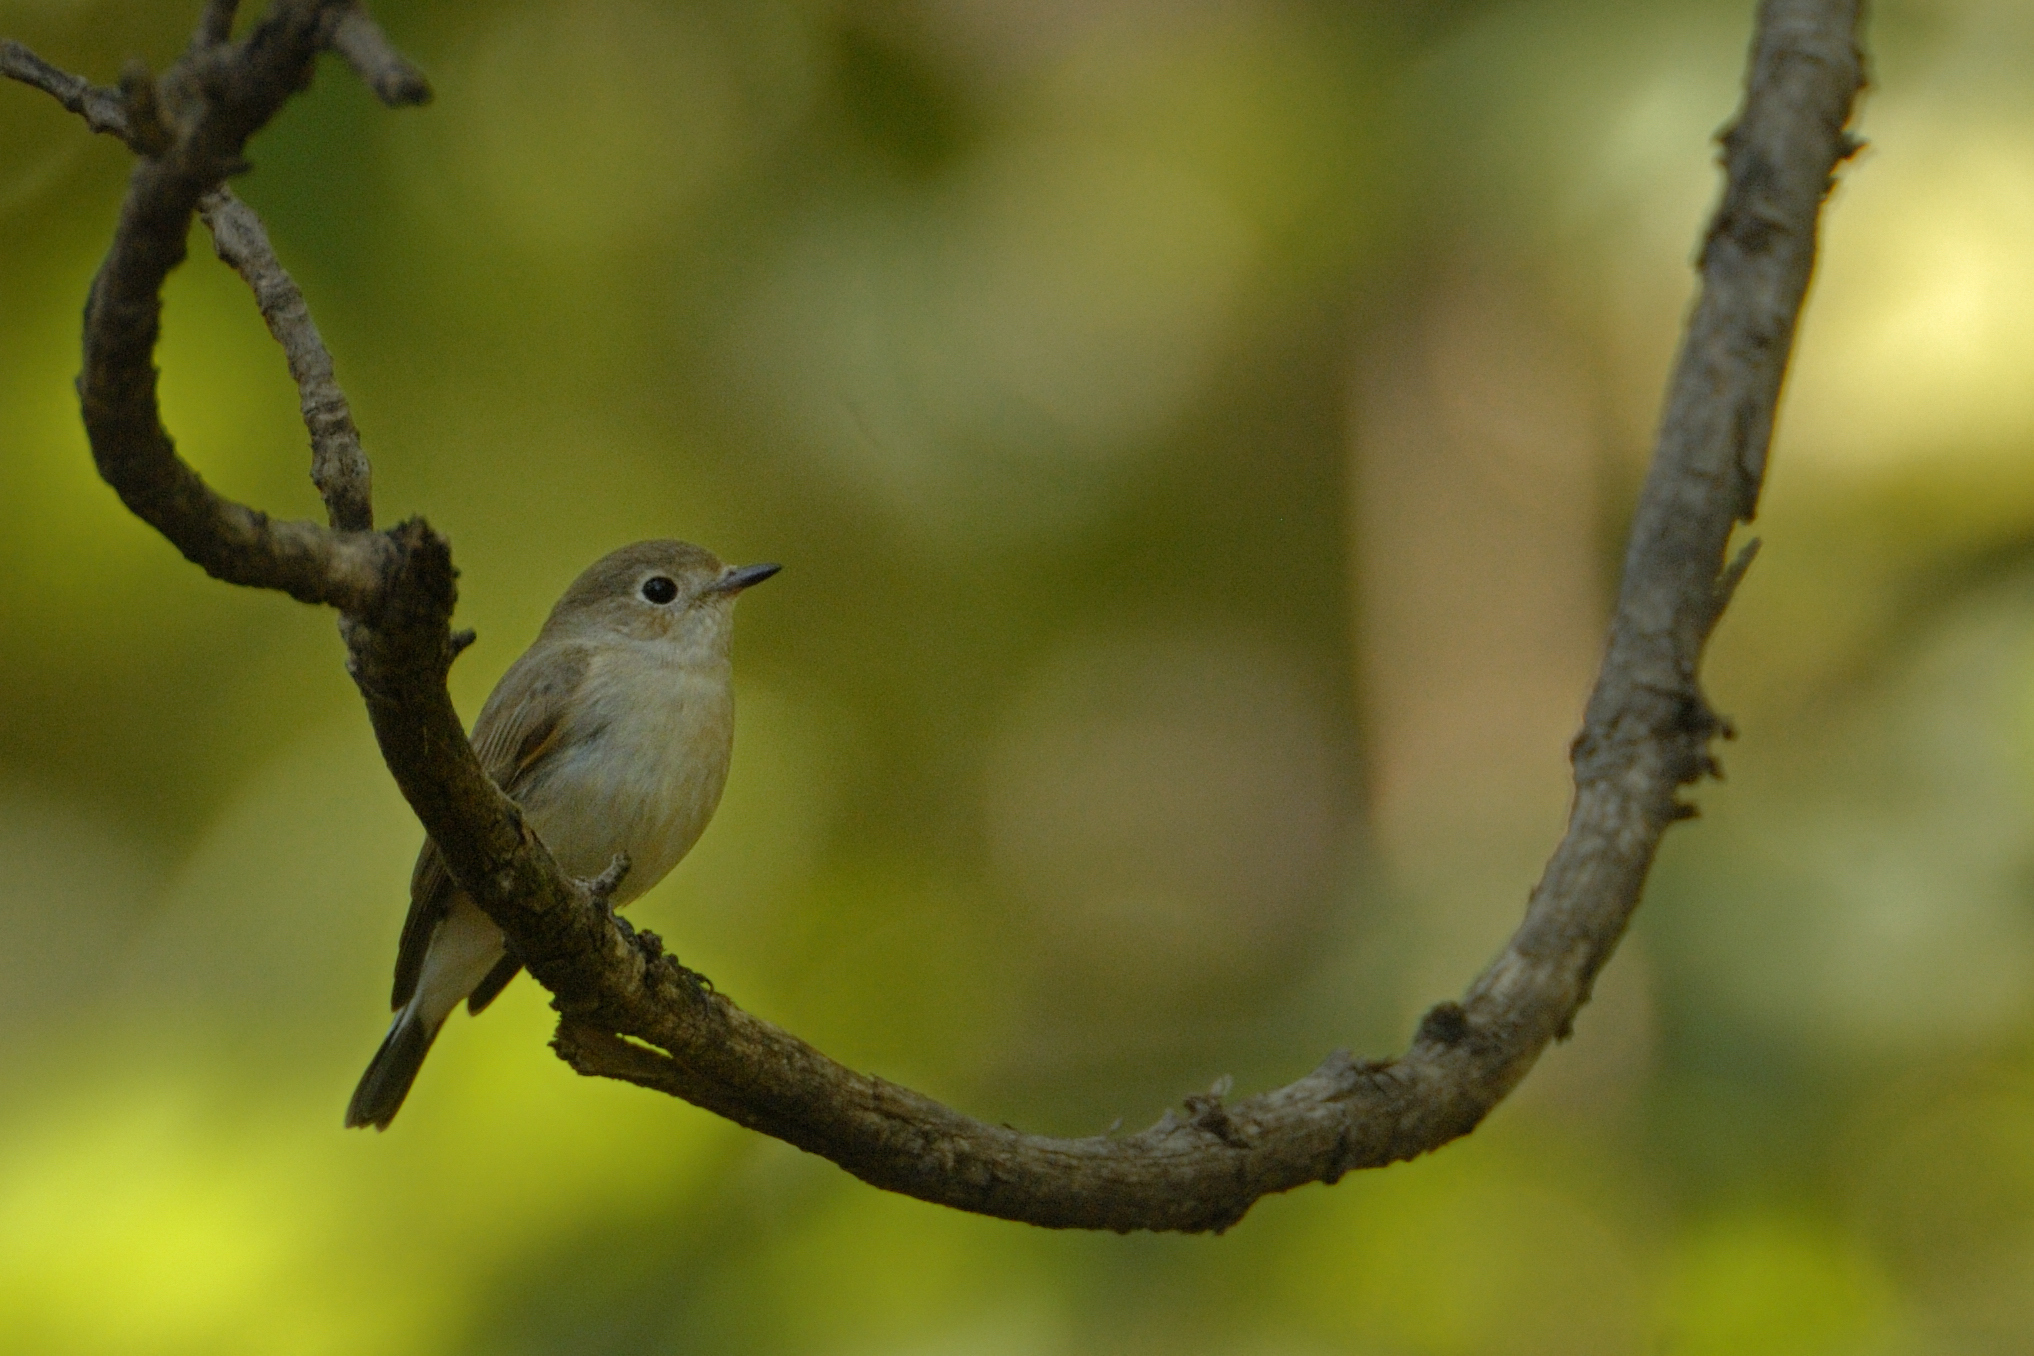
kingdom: Animalia
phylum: Chordata
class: Aves
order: Passeriformes
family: Muscicapidae
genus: Muscicapa
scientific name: Muscicapa latirostris
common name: Asian brown flycatcher
